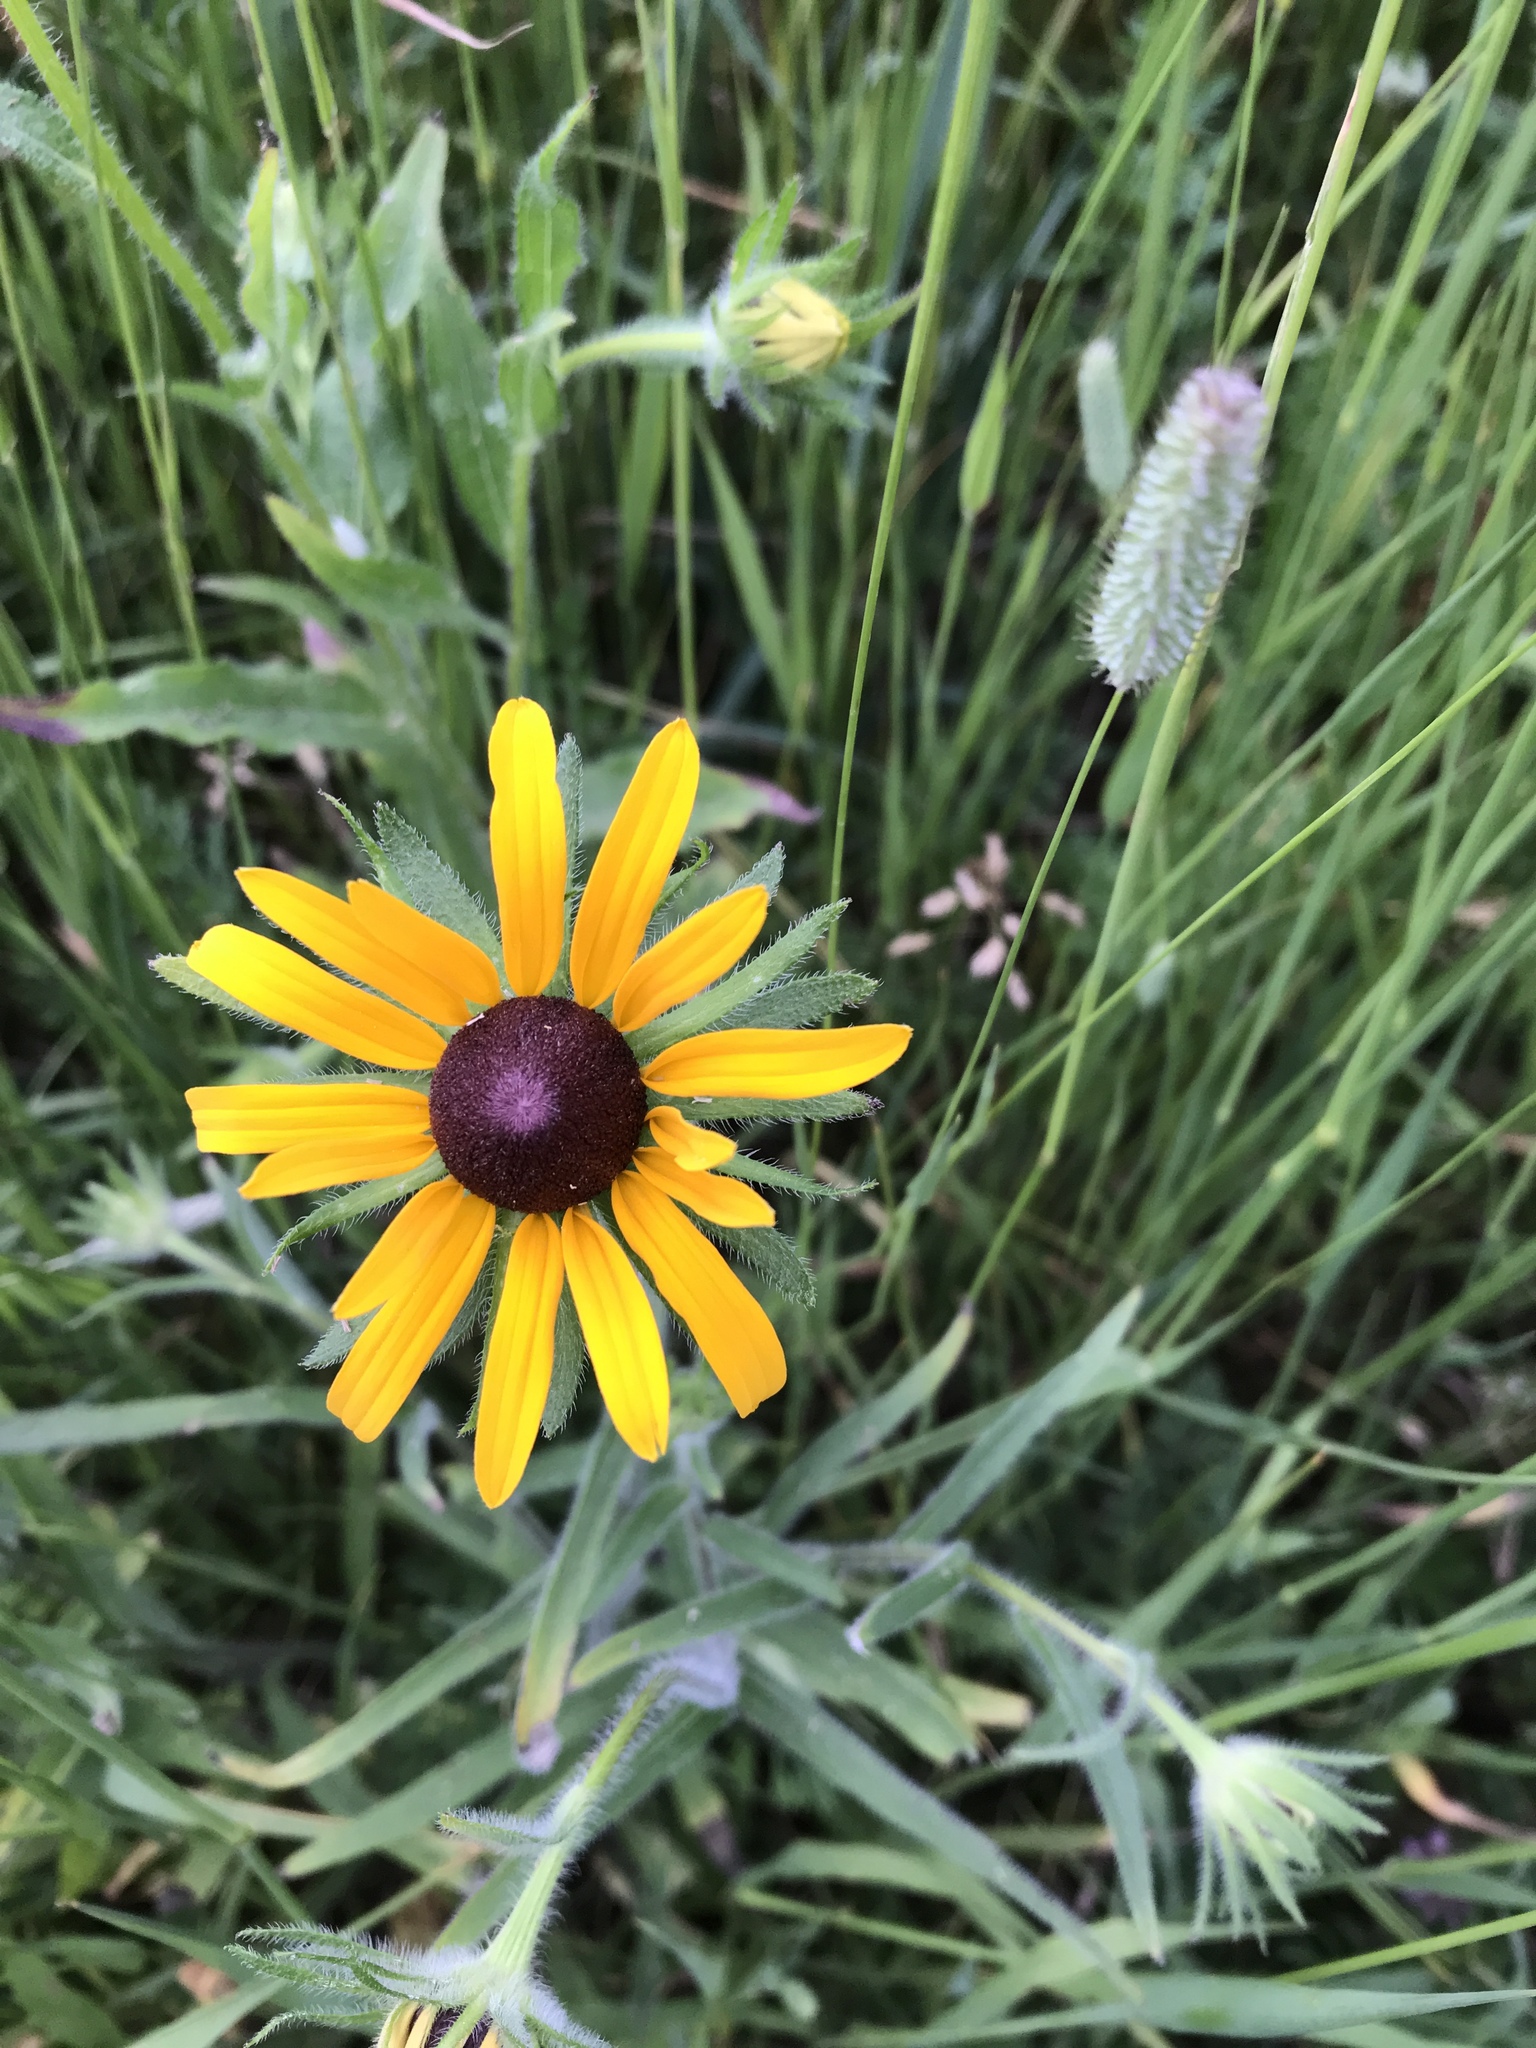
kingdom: Plantae
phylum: Tracheophyta
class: Magnoliopsida
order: Asterales
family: Asteraceae
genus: Rudbeckia
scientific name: Rudbeckia hirta
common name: Black-eyed-susan
